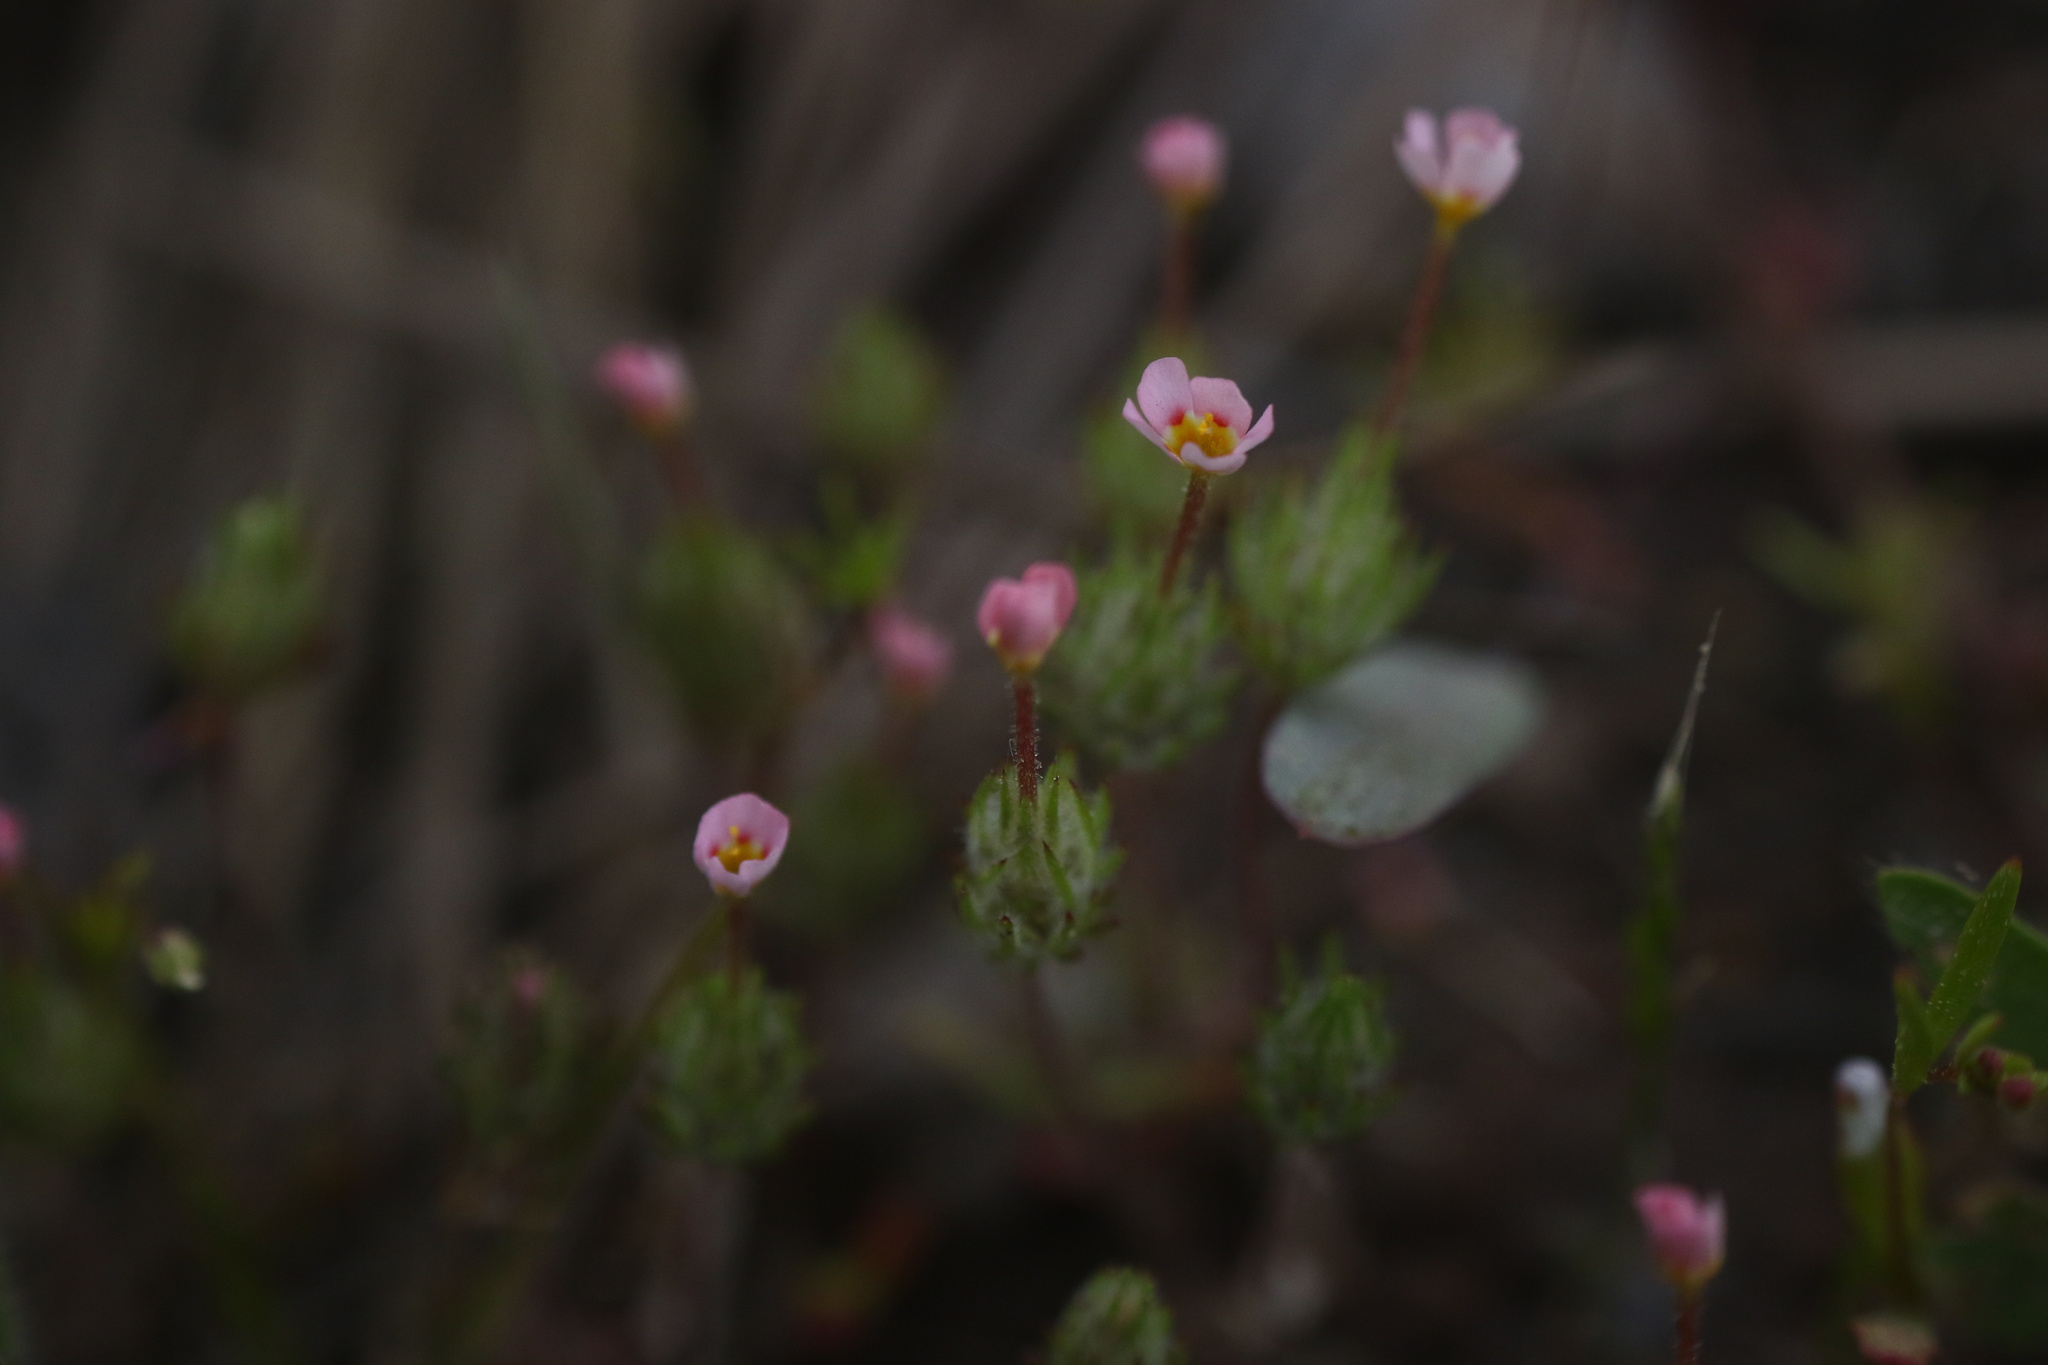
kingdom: Plantae
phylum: Tracheophyta
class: Magnoliopsida
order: Ericales
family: Polemoniaceae
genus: Leptosiphon
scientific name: Leptosiphon ciliatus
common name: Whiskerbrush
